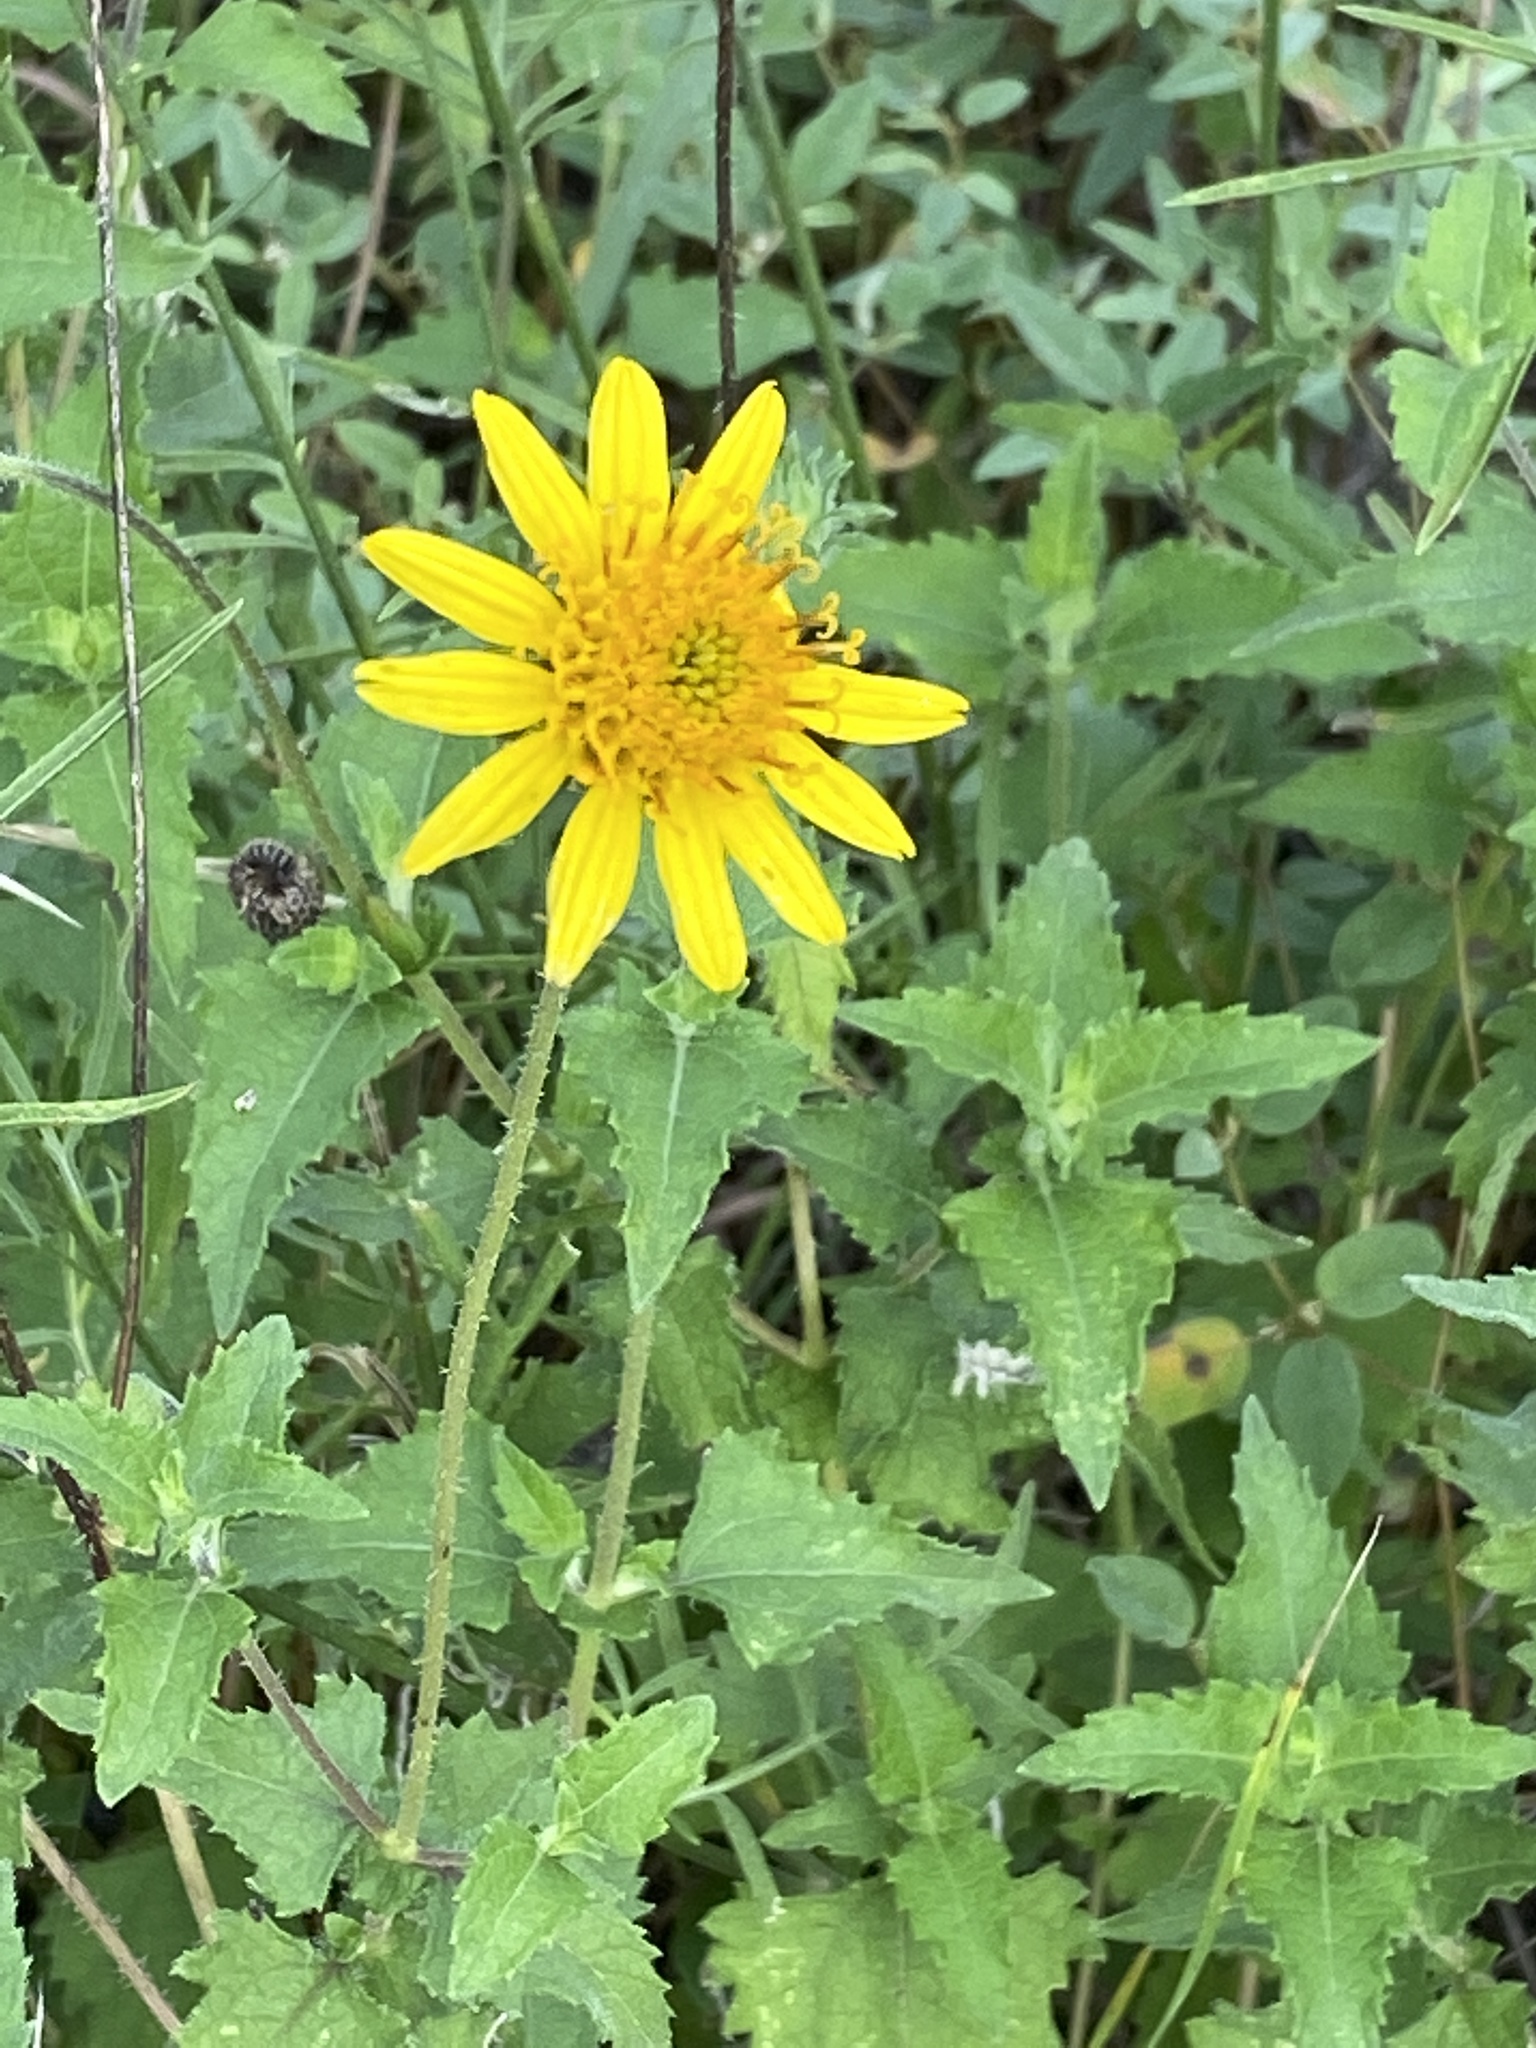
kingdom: Plantae
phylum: Tracheophyta
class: Magnoliopsida
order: Asterales
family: Asteraceae
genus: Simsia
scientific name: Simsia calva
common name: Awnless bush-sunflower
